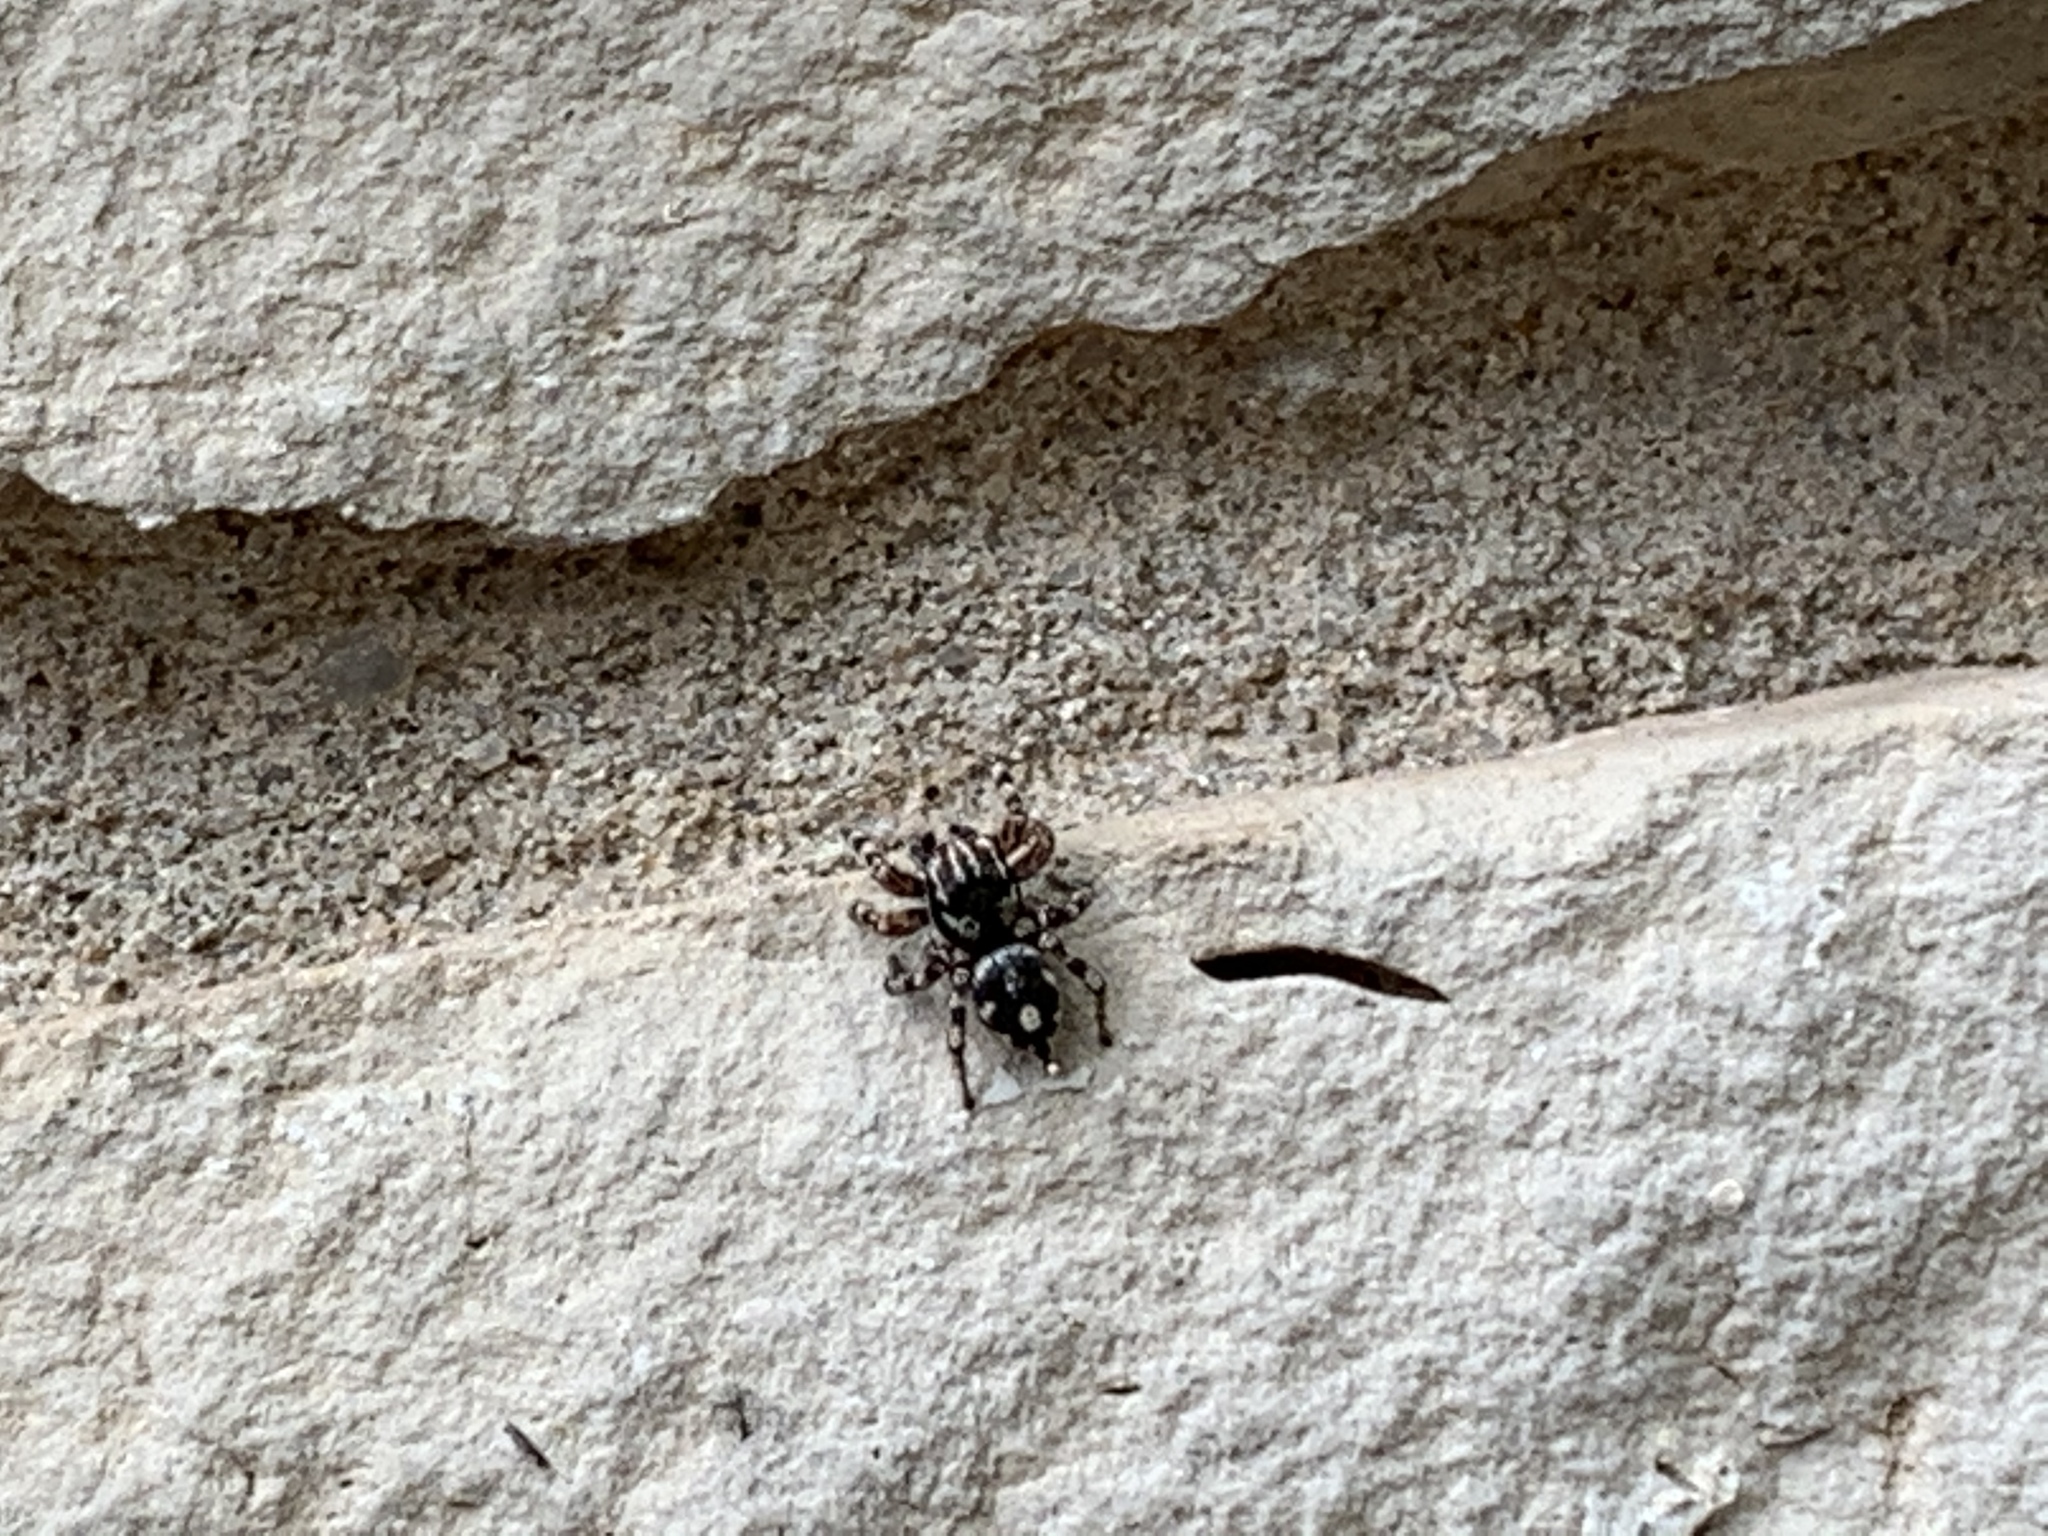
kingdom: Animalia
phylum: Arthropoda
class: Arachnida
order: Araneae
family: Salticidae
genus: Habronattus
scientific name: Habronattus fallax
